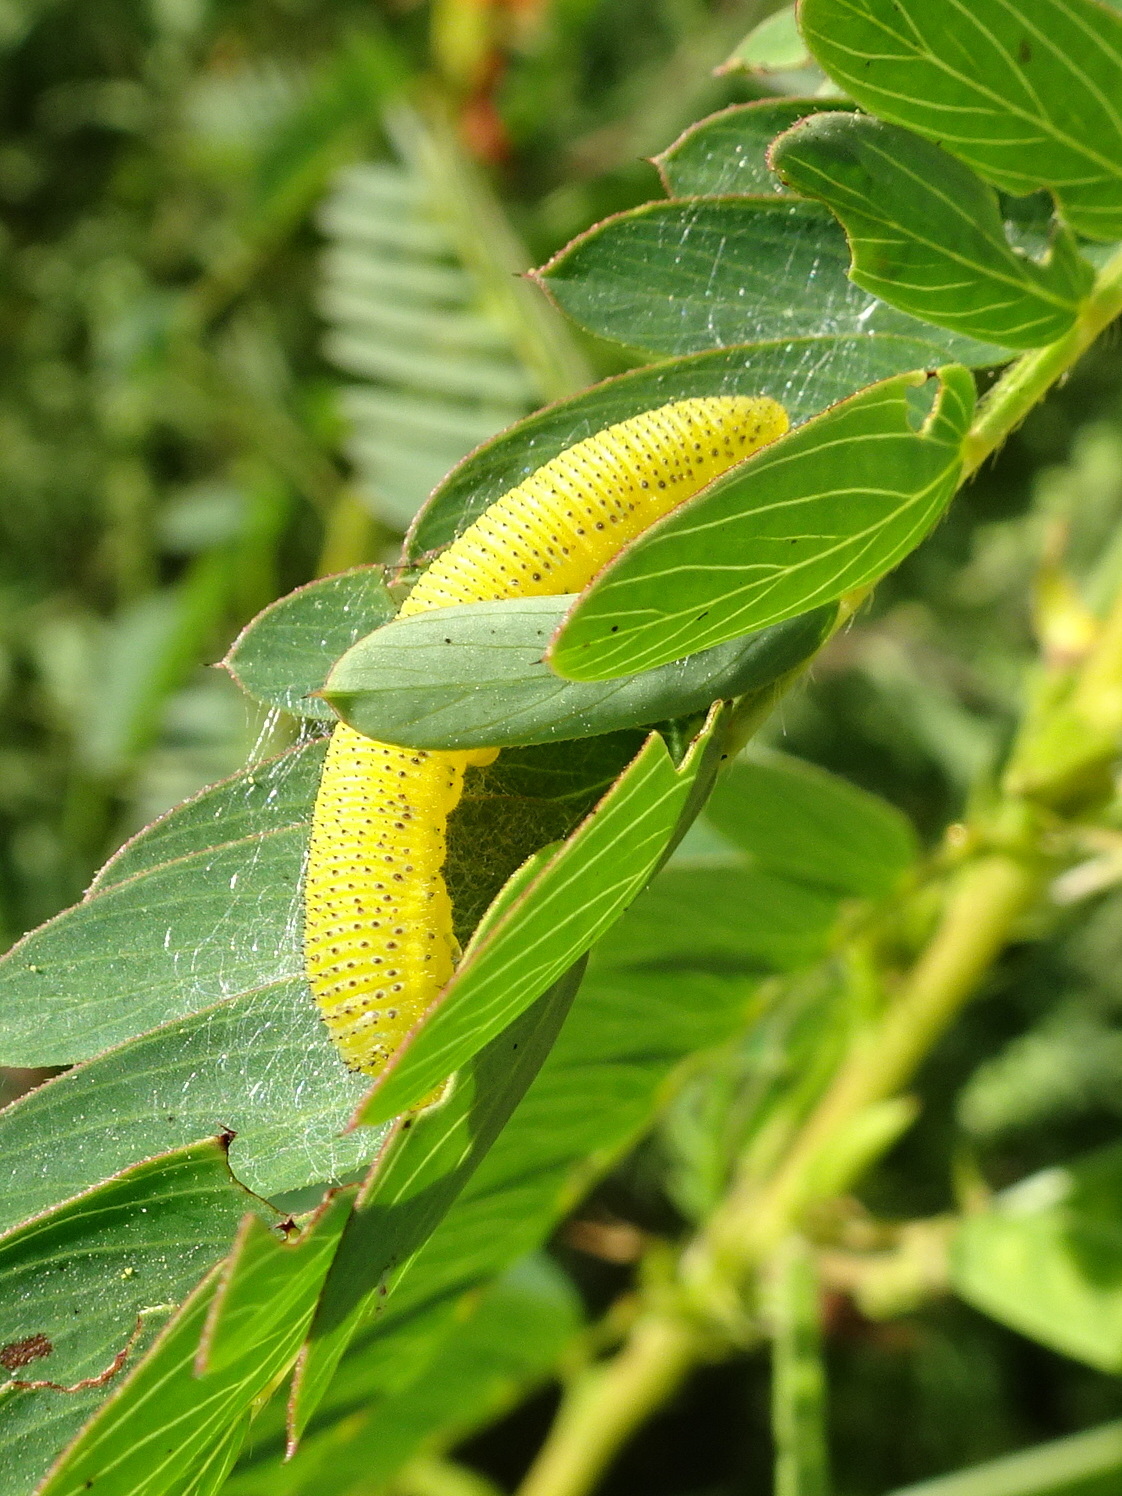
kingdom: Animalia
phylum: Arthropoda
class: Insecta
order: Lepidoptera
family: Pieridae
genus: Phoebis
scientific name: Phoebis sennae
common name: Cloudless sulphur
